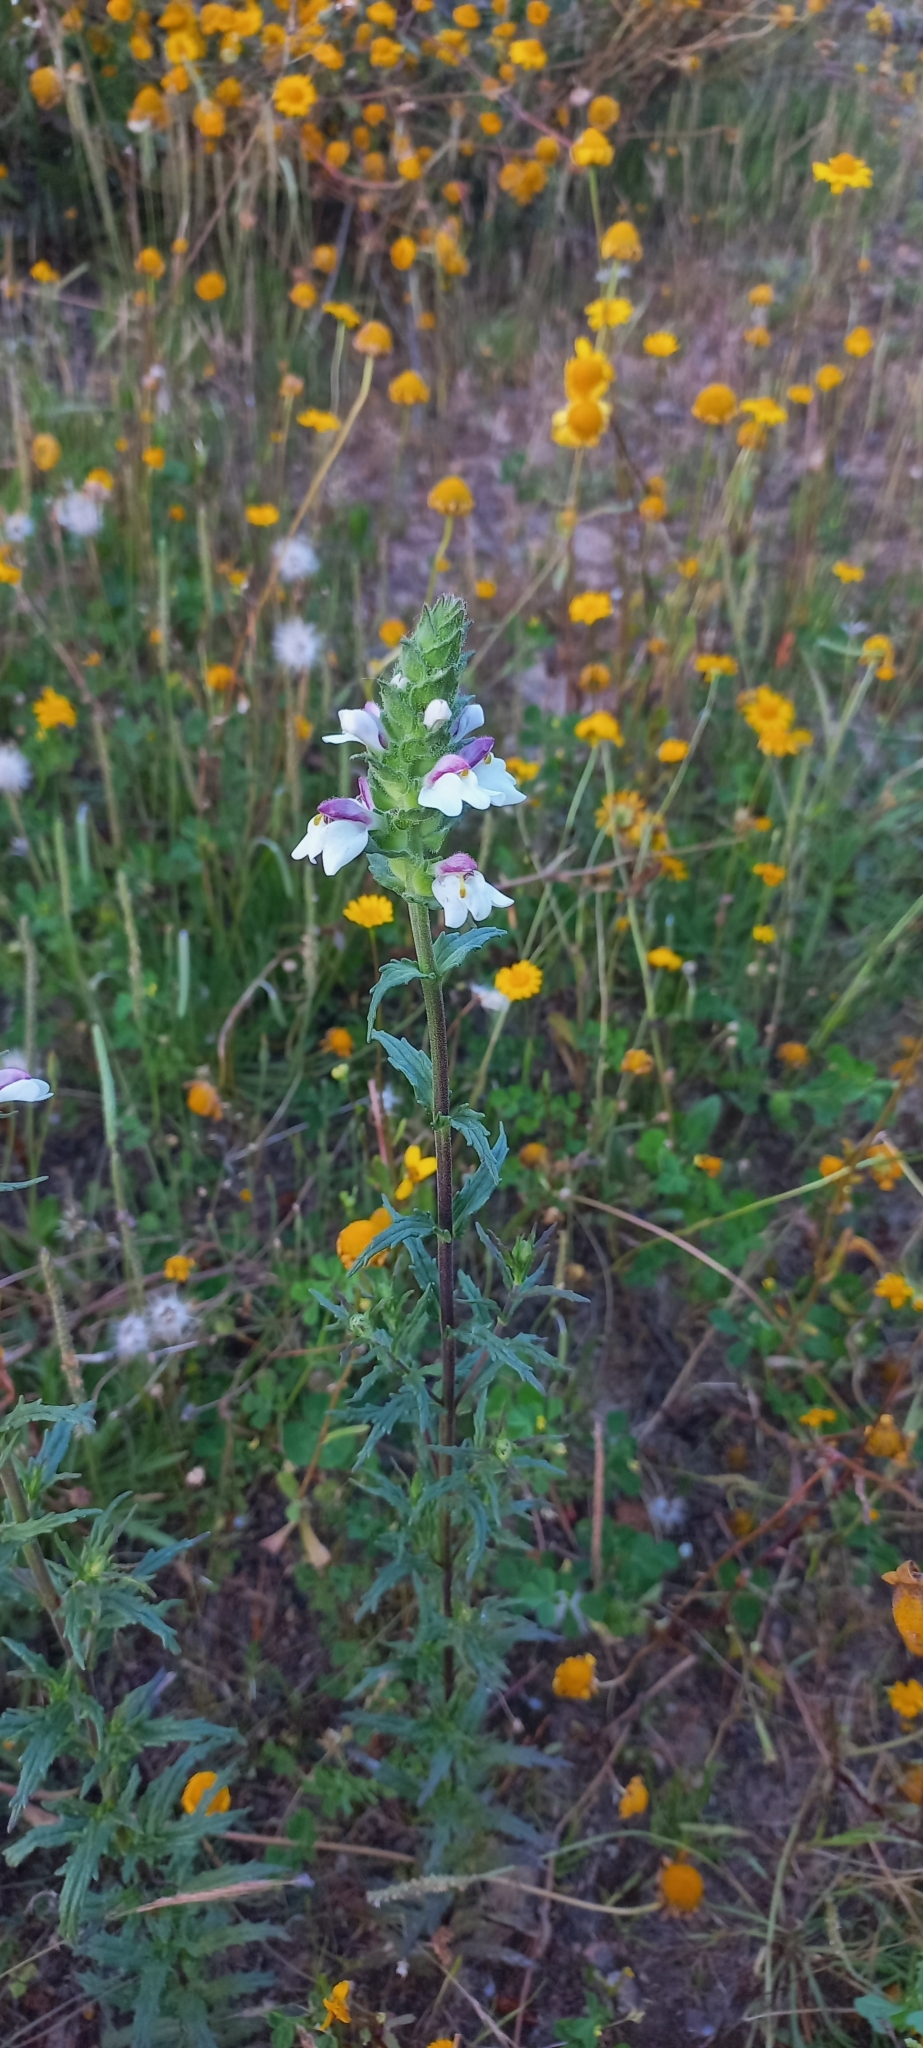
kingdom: Plantae
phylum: Tracheophyta
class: Magnoliopsida
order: Lamiales
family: Orobanchaceae
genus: Bellardia
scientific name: Bellardia trixago
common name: Mediterranean lineseed
